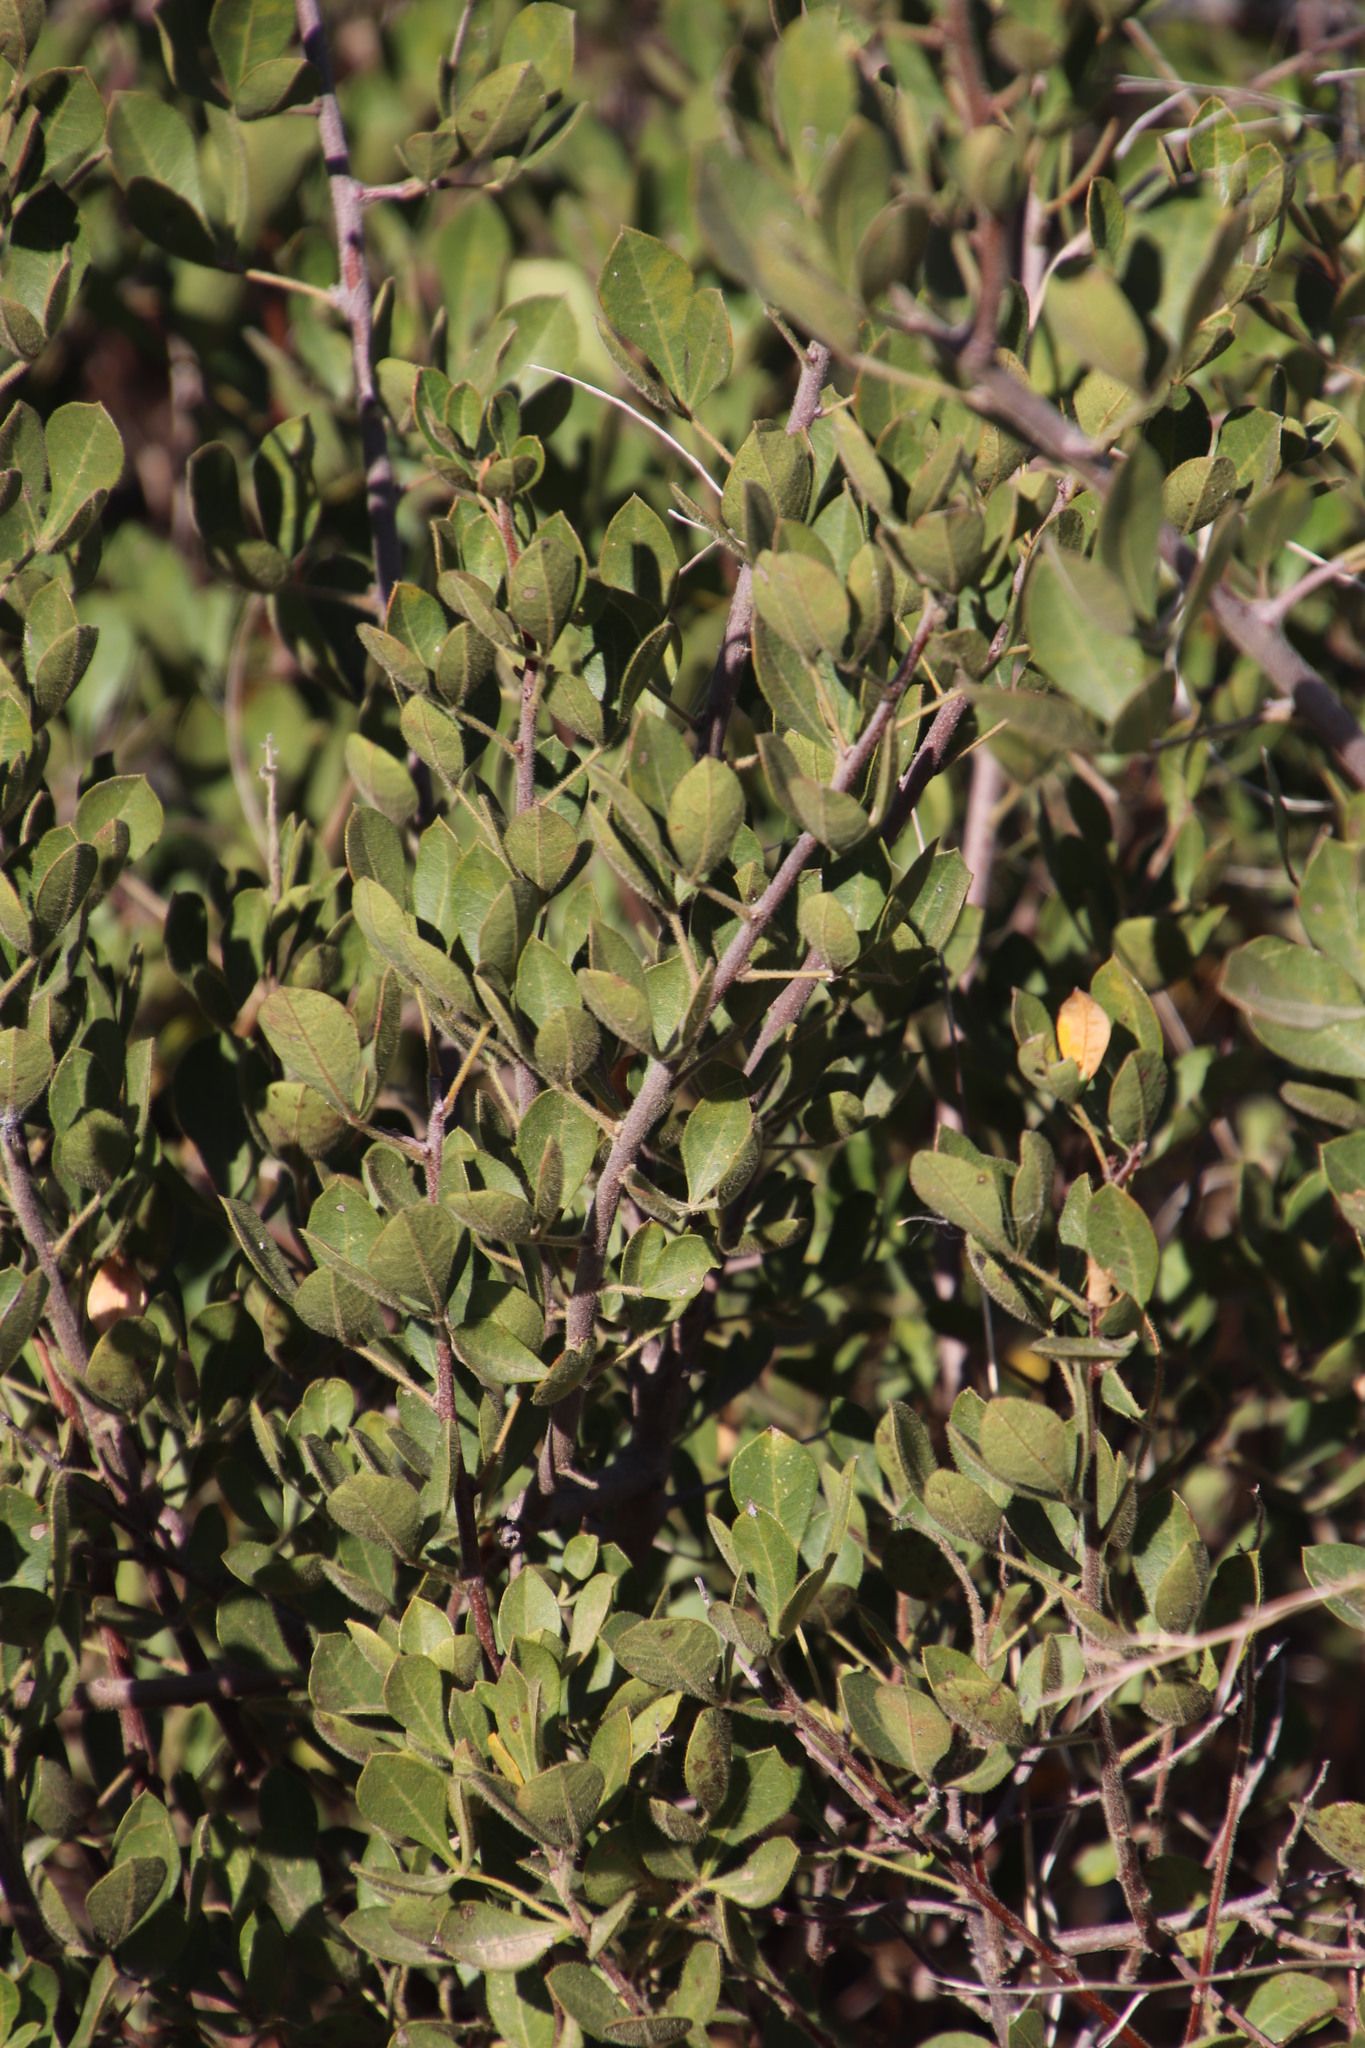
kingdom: Plantae
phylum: Tracheophyta
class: Magnoliopsida
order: Sapindales
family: Anacardiaceae
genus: Searsia
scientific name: Searsia laevigata
